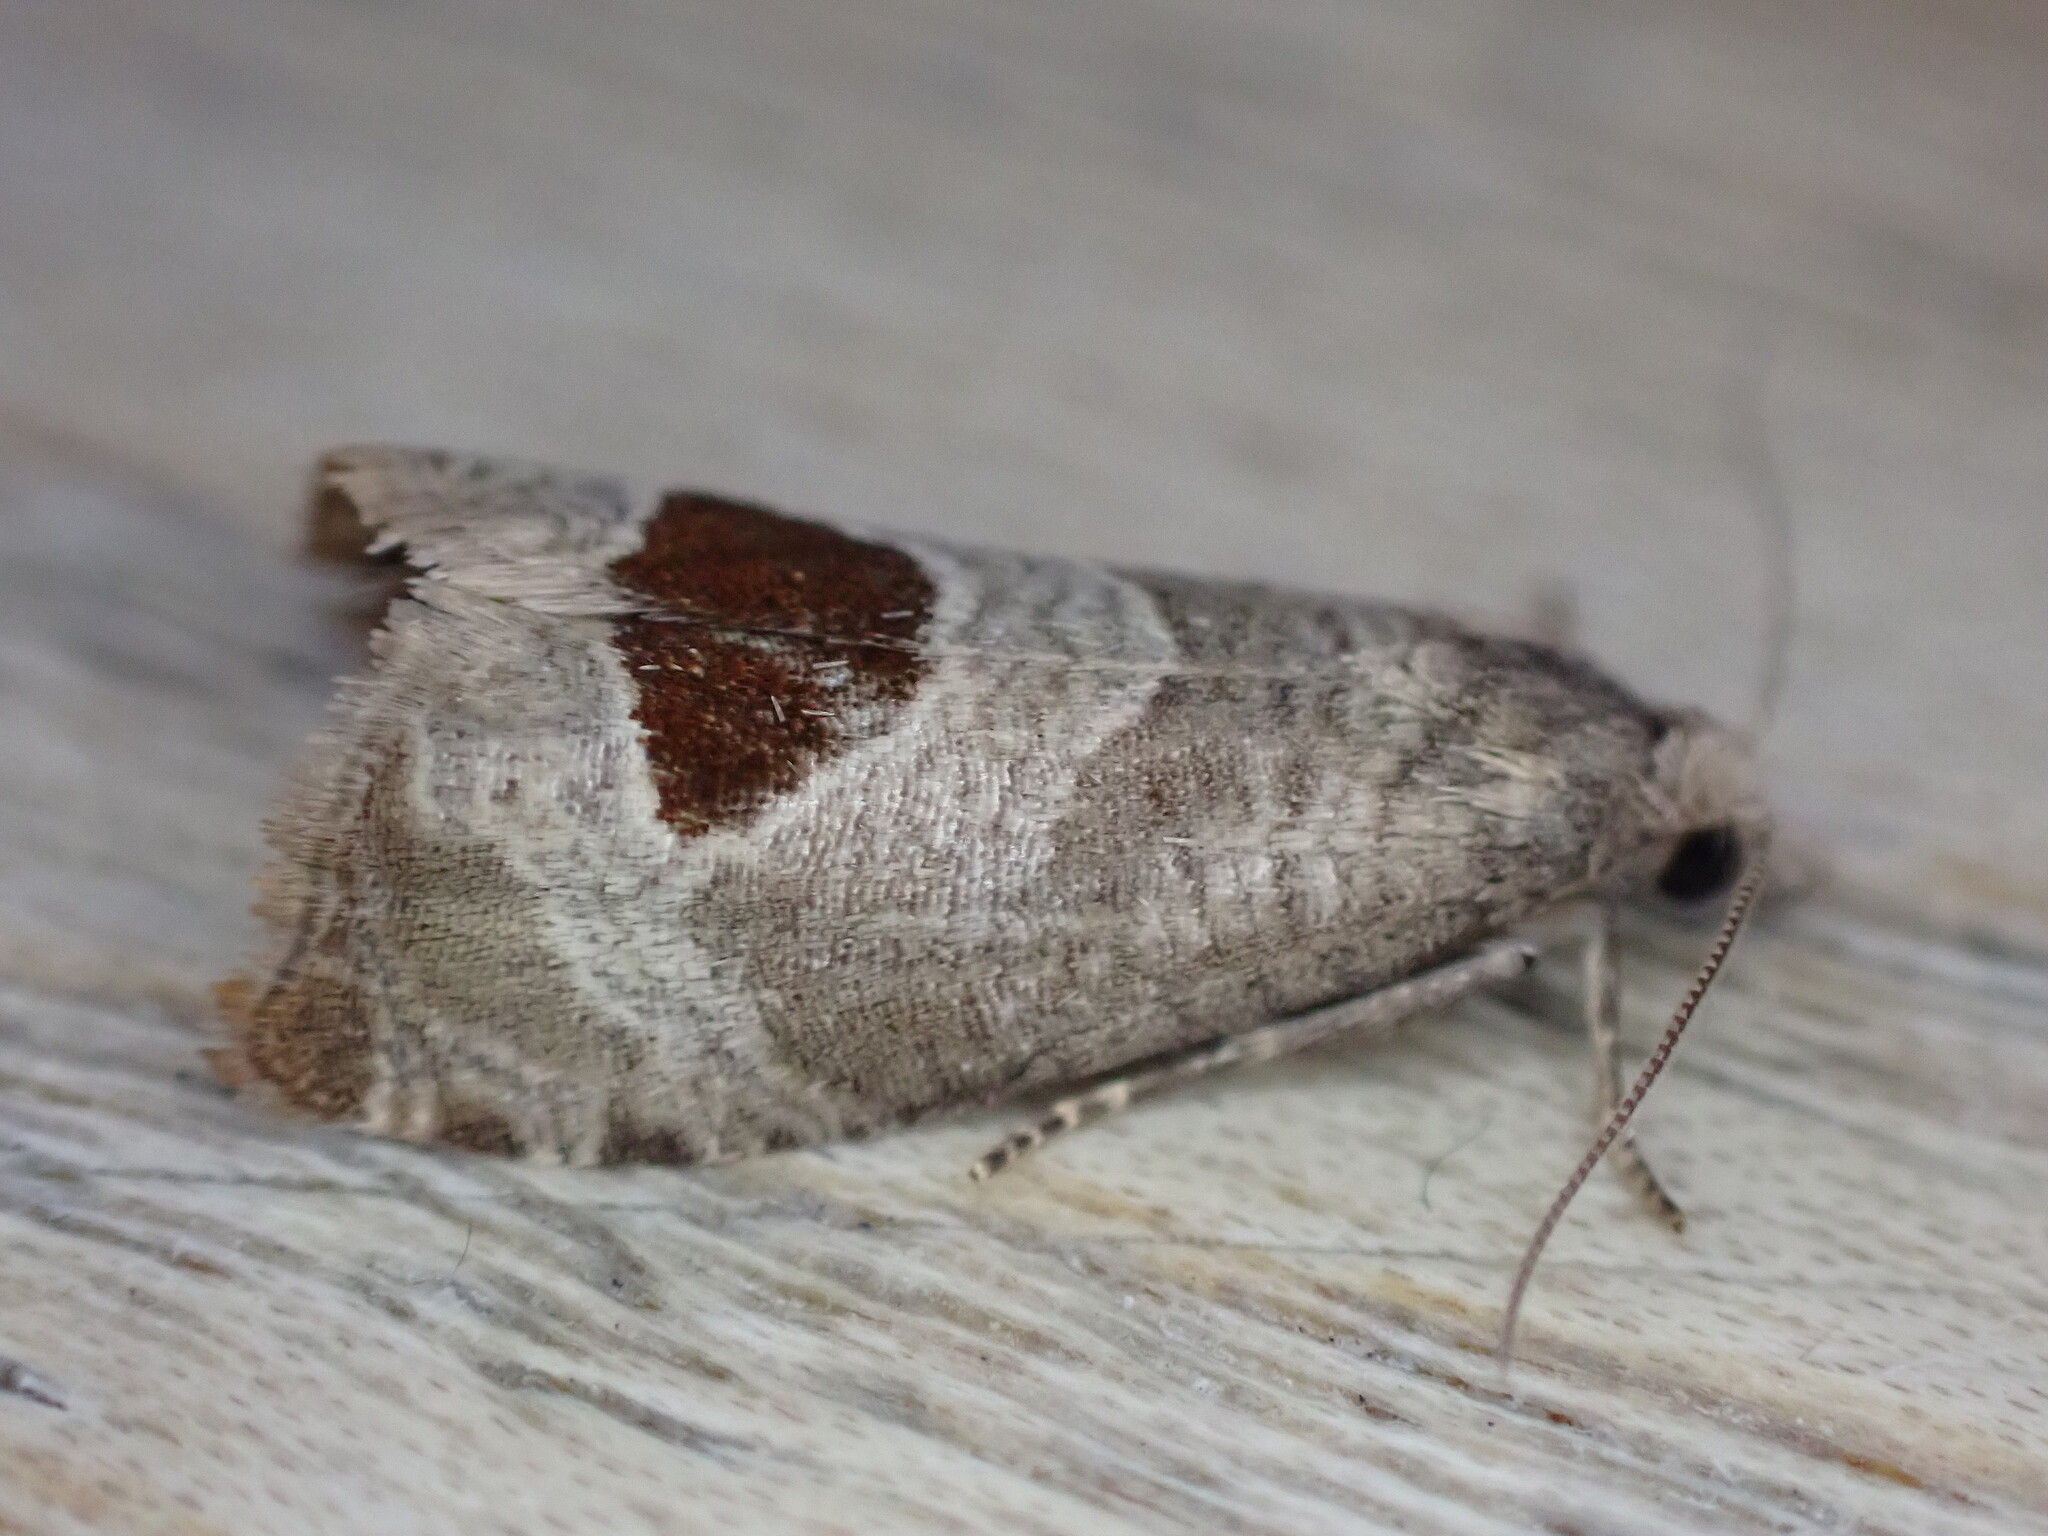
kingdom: Animalia
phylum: Arthropoda
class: Insecta
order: Lepidoptera
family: Tortricidae
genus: Notocelia
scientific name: Notocelia uddmanniana
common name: Bramble shoot moth
